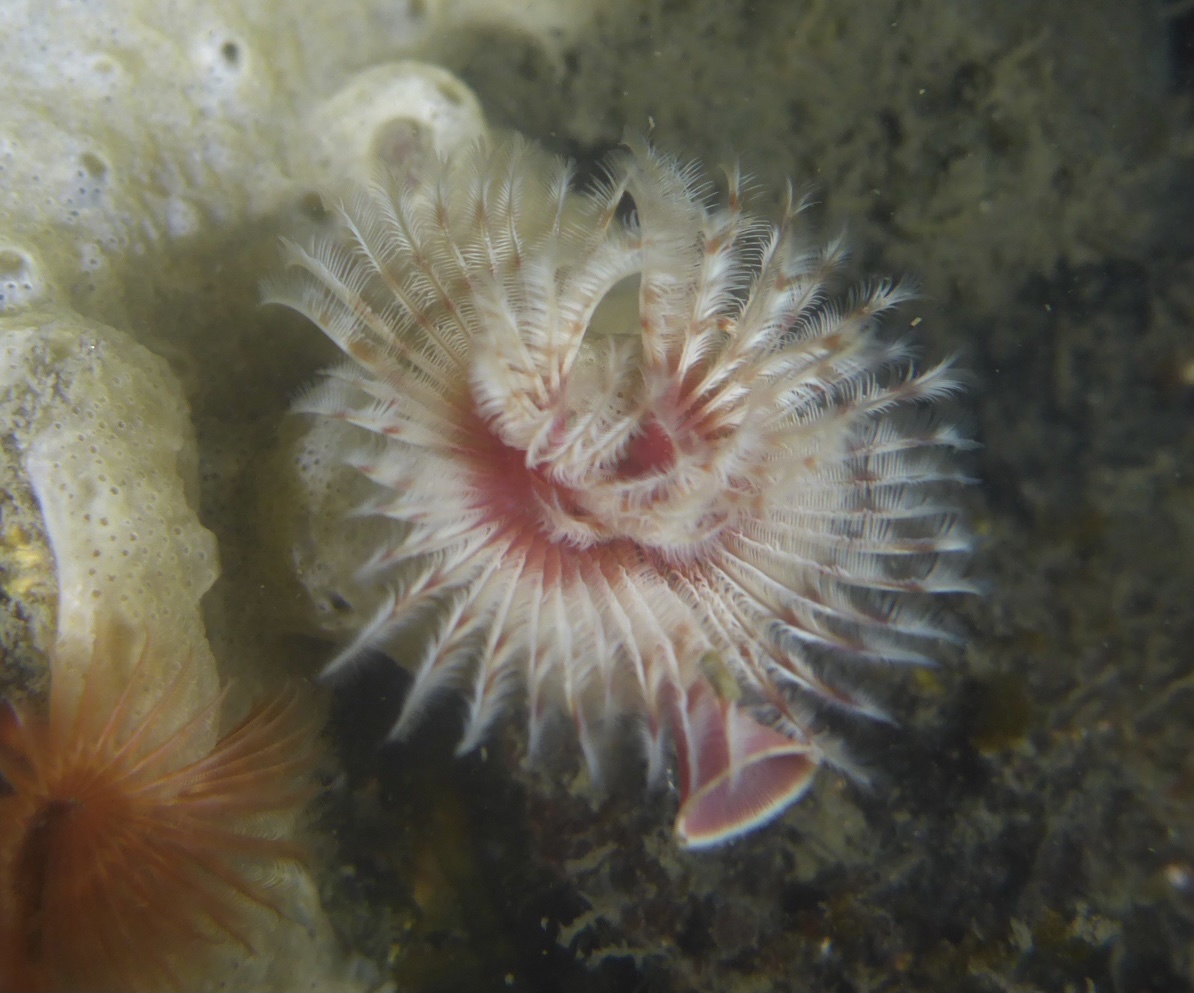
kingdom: Animalia
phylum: Annelida
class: Polychaeta
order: Sabellida
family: Serpulidae
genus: Serpula
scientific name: Serpula columbiana
